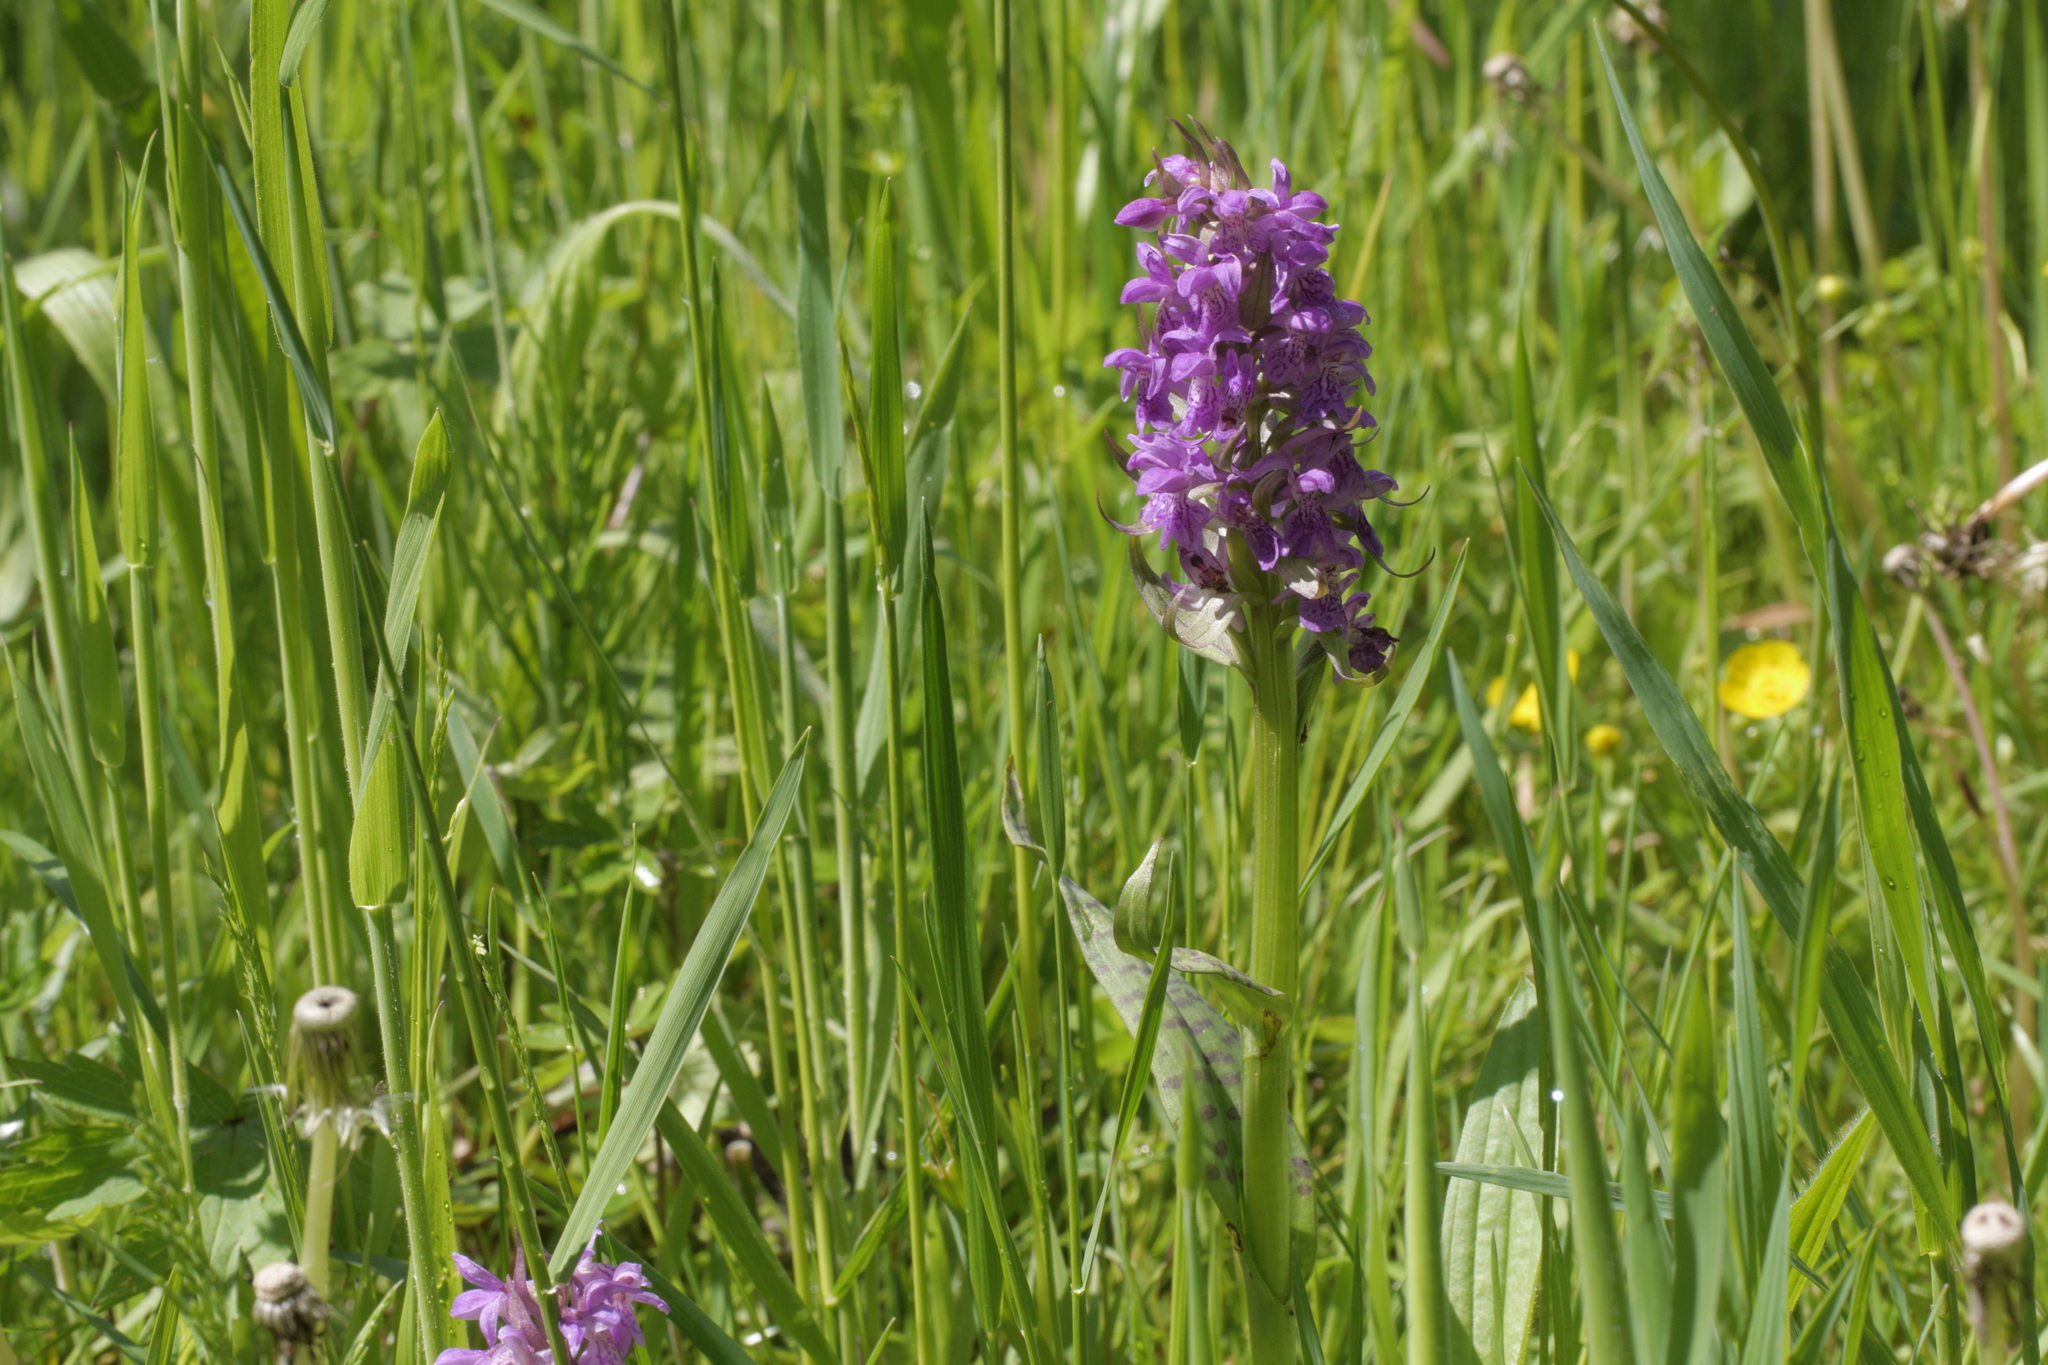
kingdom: Plantae
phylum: Tracheophyta
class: Liliopsida
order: Asparagales
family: Orchidaceae
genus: Dactylorhiza
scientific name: Dactylorhiza majalis
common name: Marsh orchid
